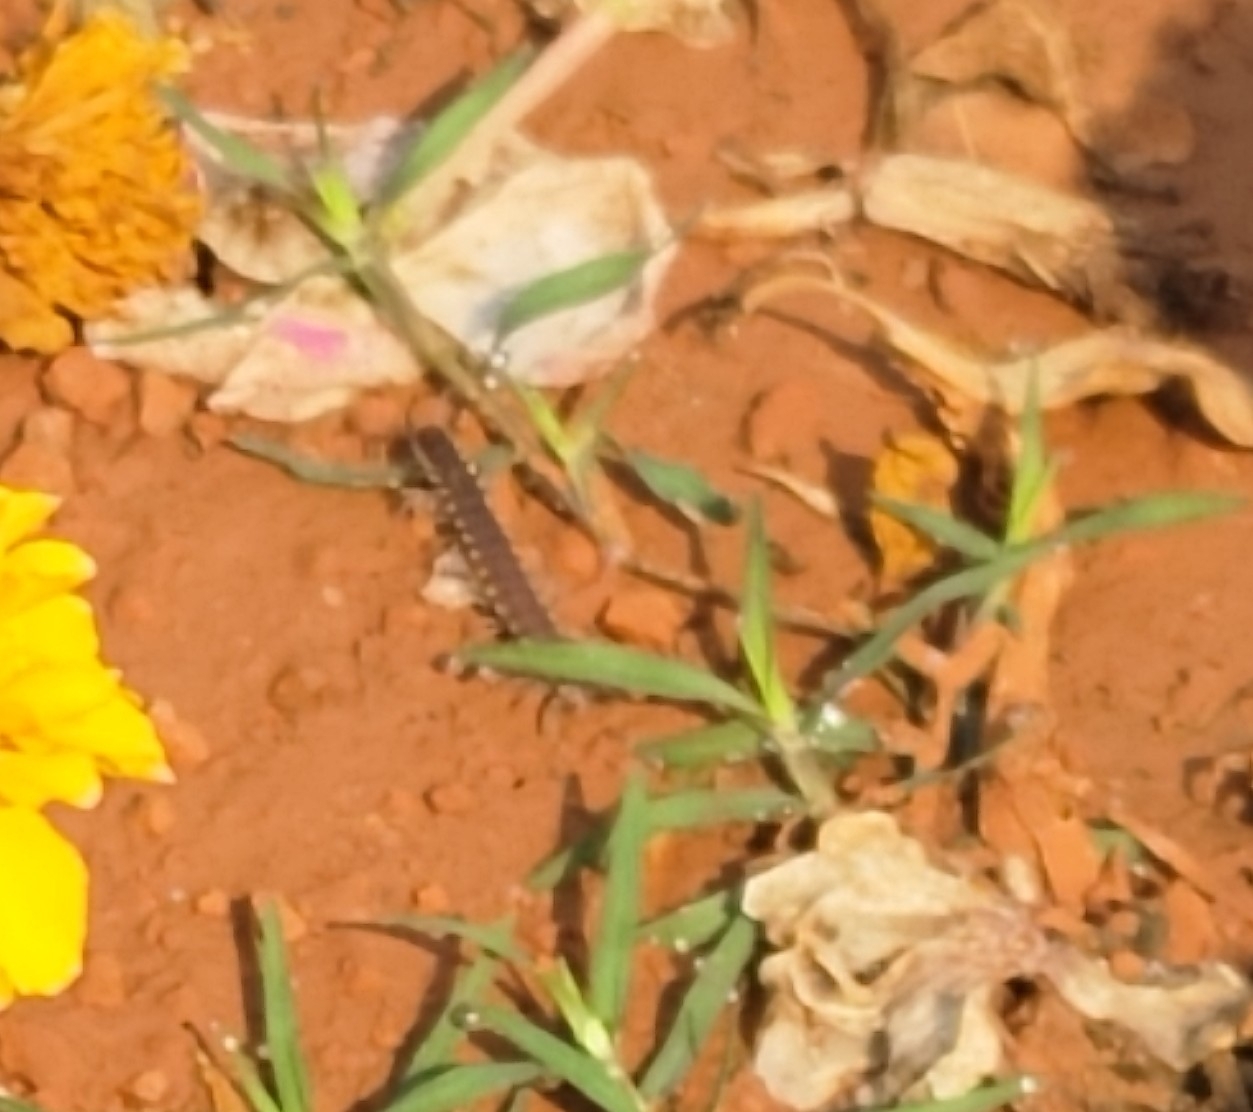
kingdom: Animalia
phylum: Arthropoda
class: Diplopoda
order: Polydesmida
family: Paradoxosomatidae
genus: Orthomorpha
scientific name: Orthomorpha coarctata
